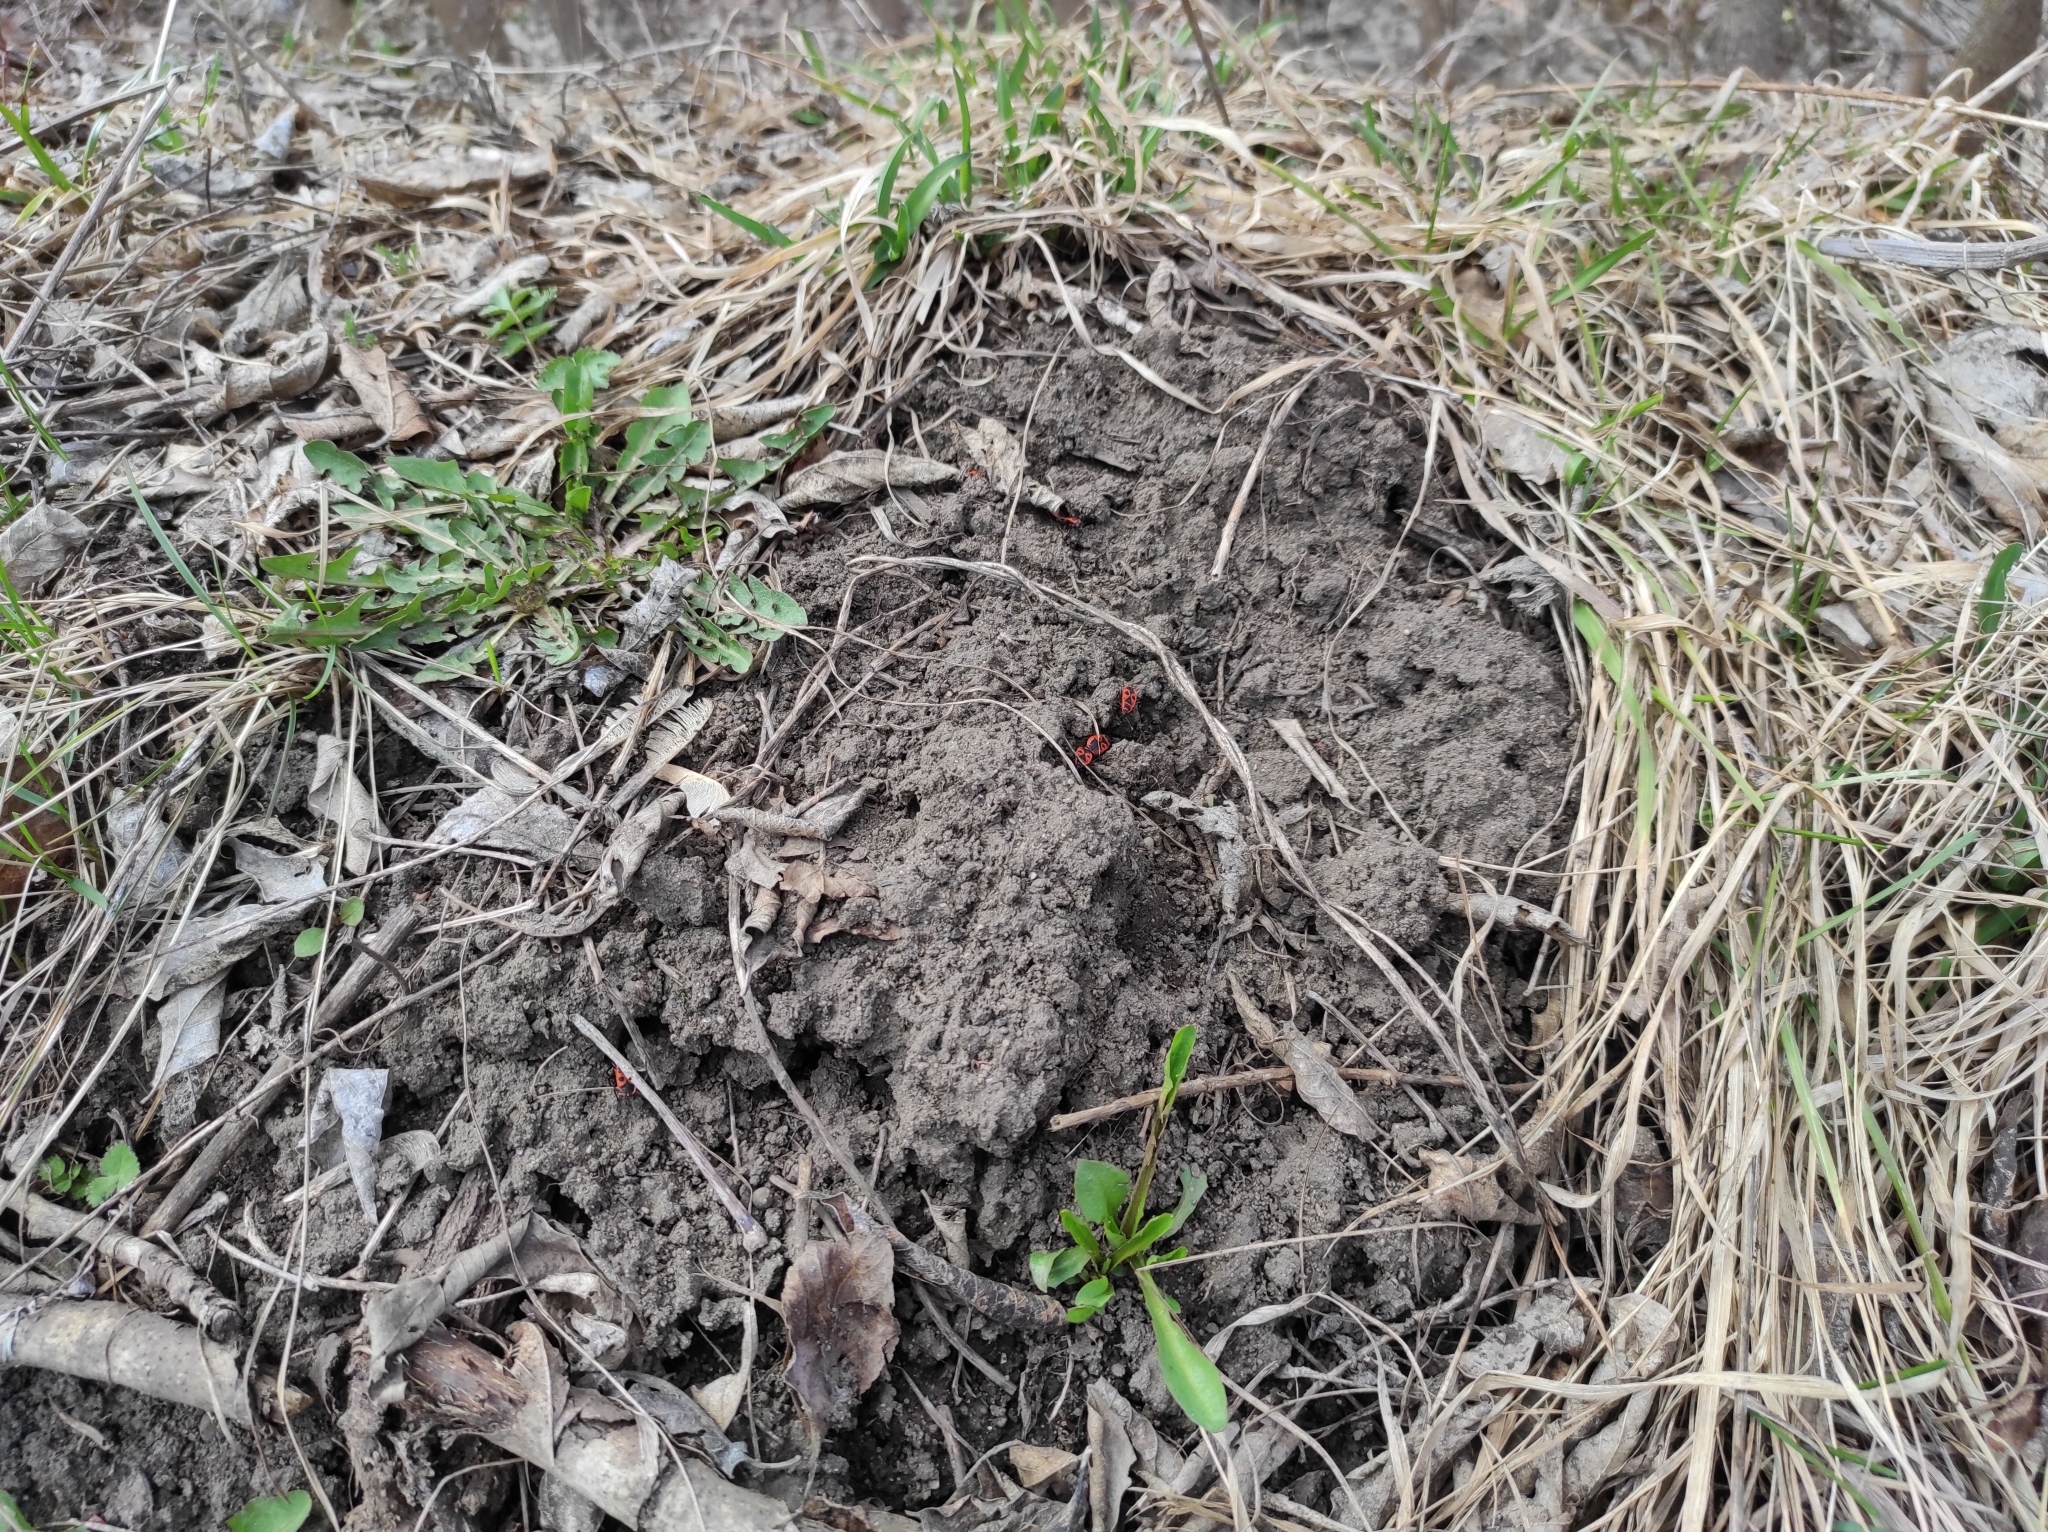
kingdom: Animalia
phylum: Arthropoda
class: Insecta
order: Hemiptera
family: Pyrrhocoridae
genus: Pyrrhocoris
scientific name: Pyrrhocoris apterus
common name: Firebug
